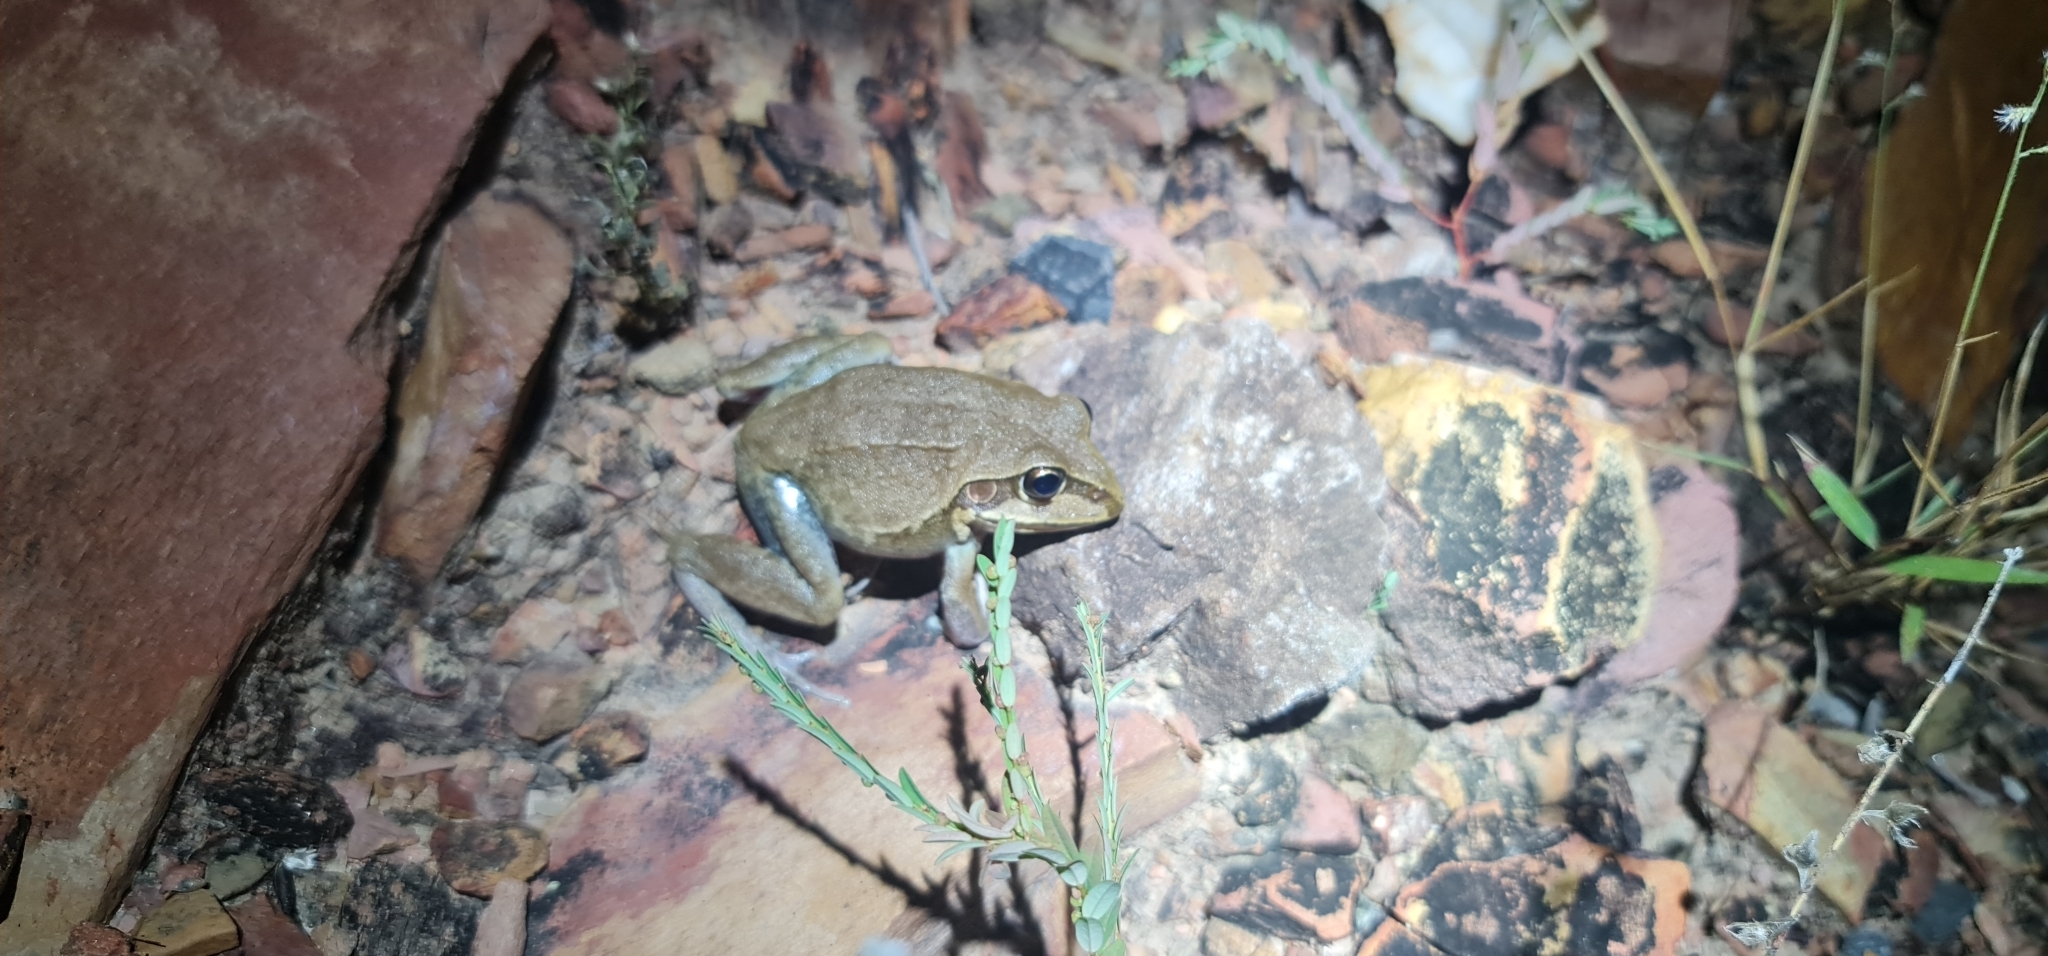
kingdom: Animalia
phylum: Chordata
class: Amphibia
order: Anura
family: Pelodryadidae
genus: Ranoidea
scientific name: Ranoidea australis
